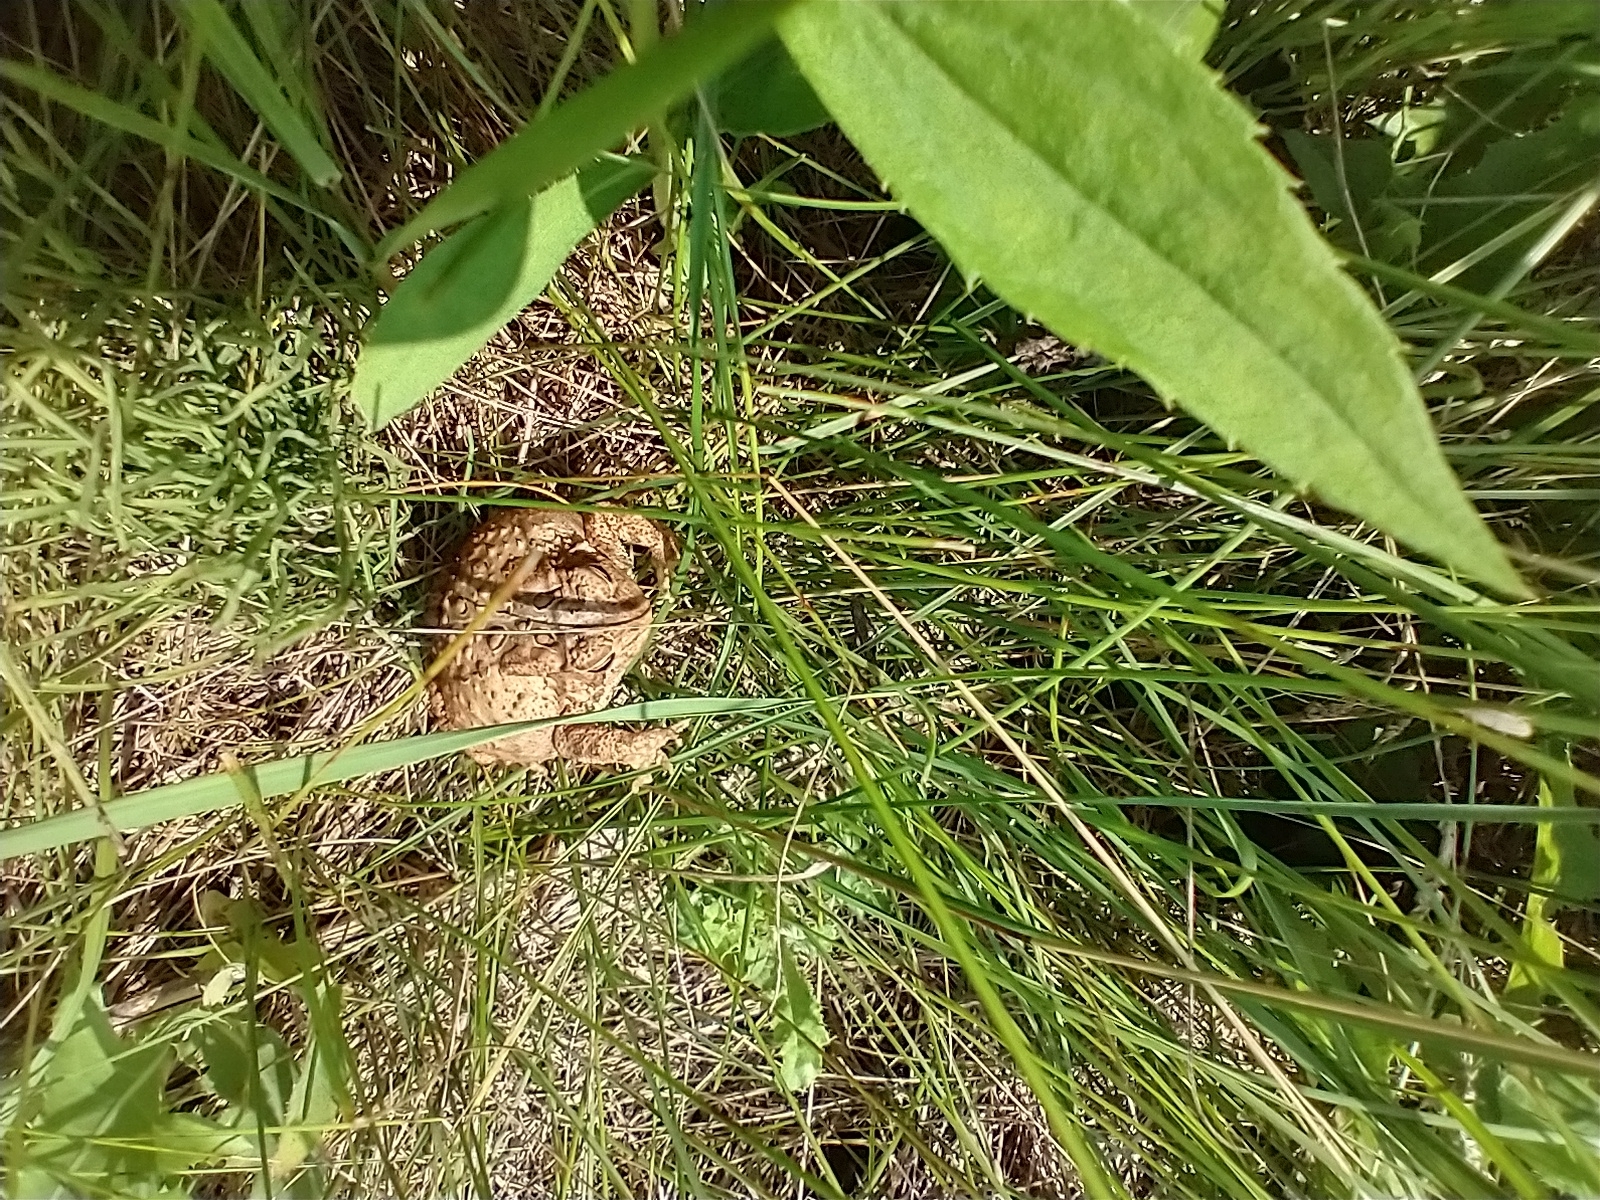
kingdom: Animalia
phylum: Chordata
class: Amphibia
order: Anura
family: Bufonidae
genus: Anaxyrus
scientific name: Anaxyrus americanus
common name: American toad
